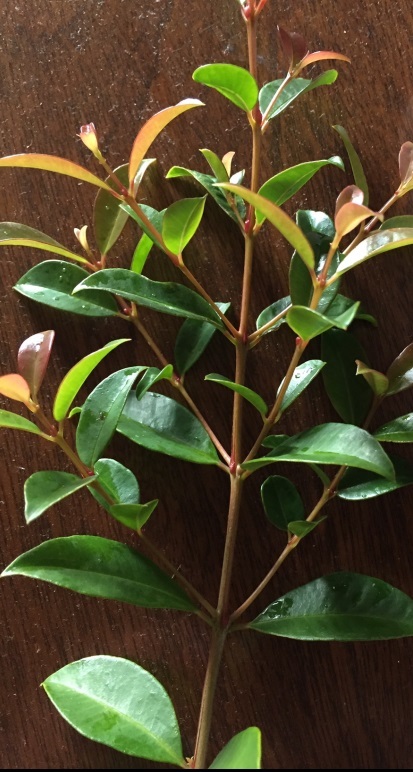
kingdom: Plantae
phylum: Tracheophyta
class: Magnoliopsida
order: Myrtales
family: Myrtaceae
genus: Syzygium
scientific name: Syzygium smithii
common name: Lilly-pilly
